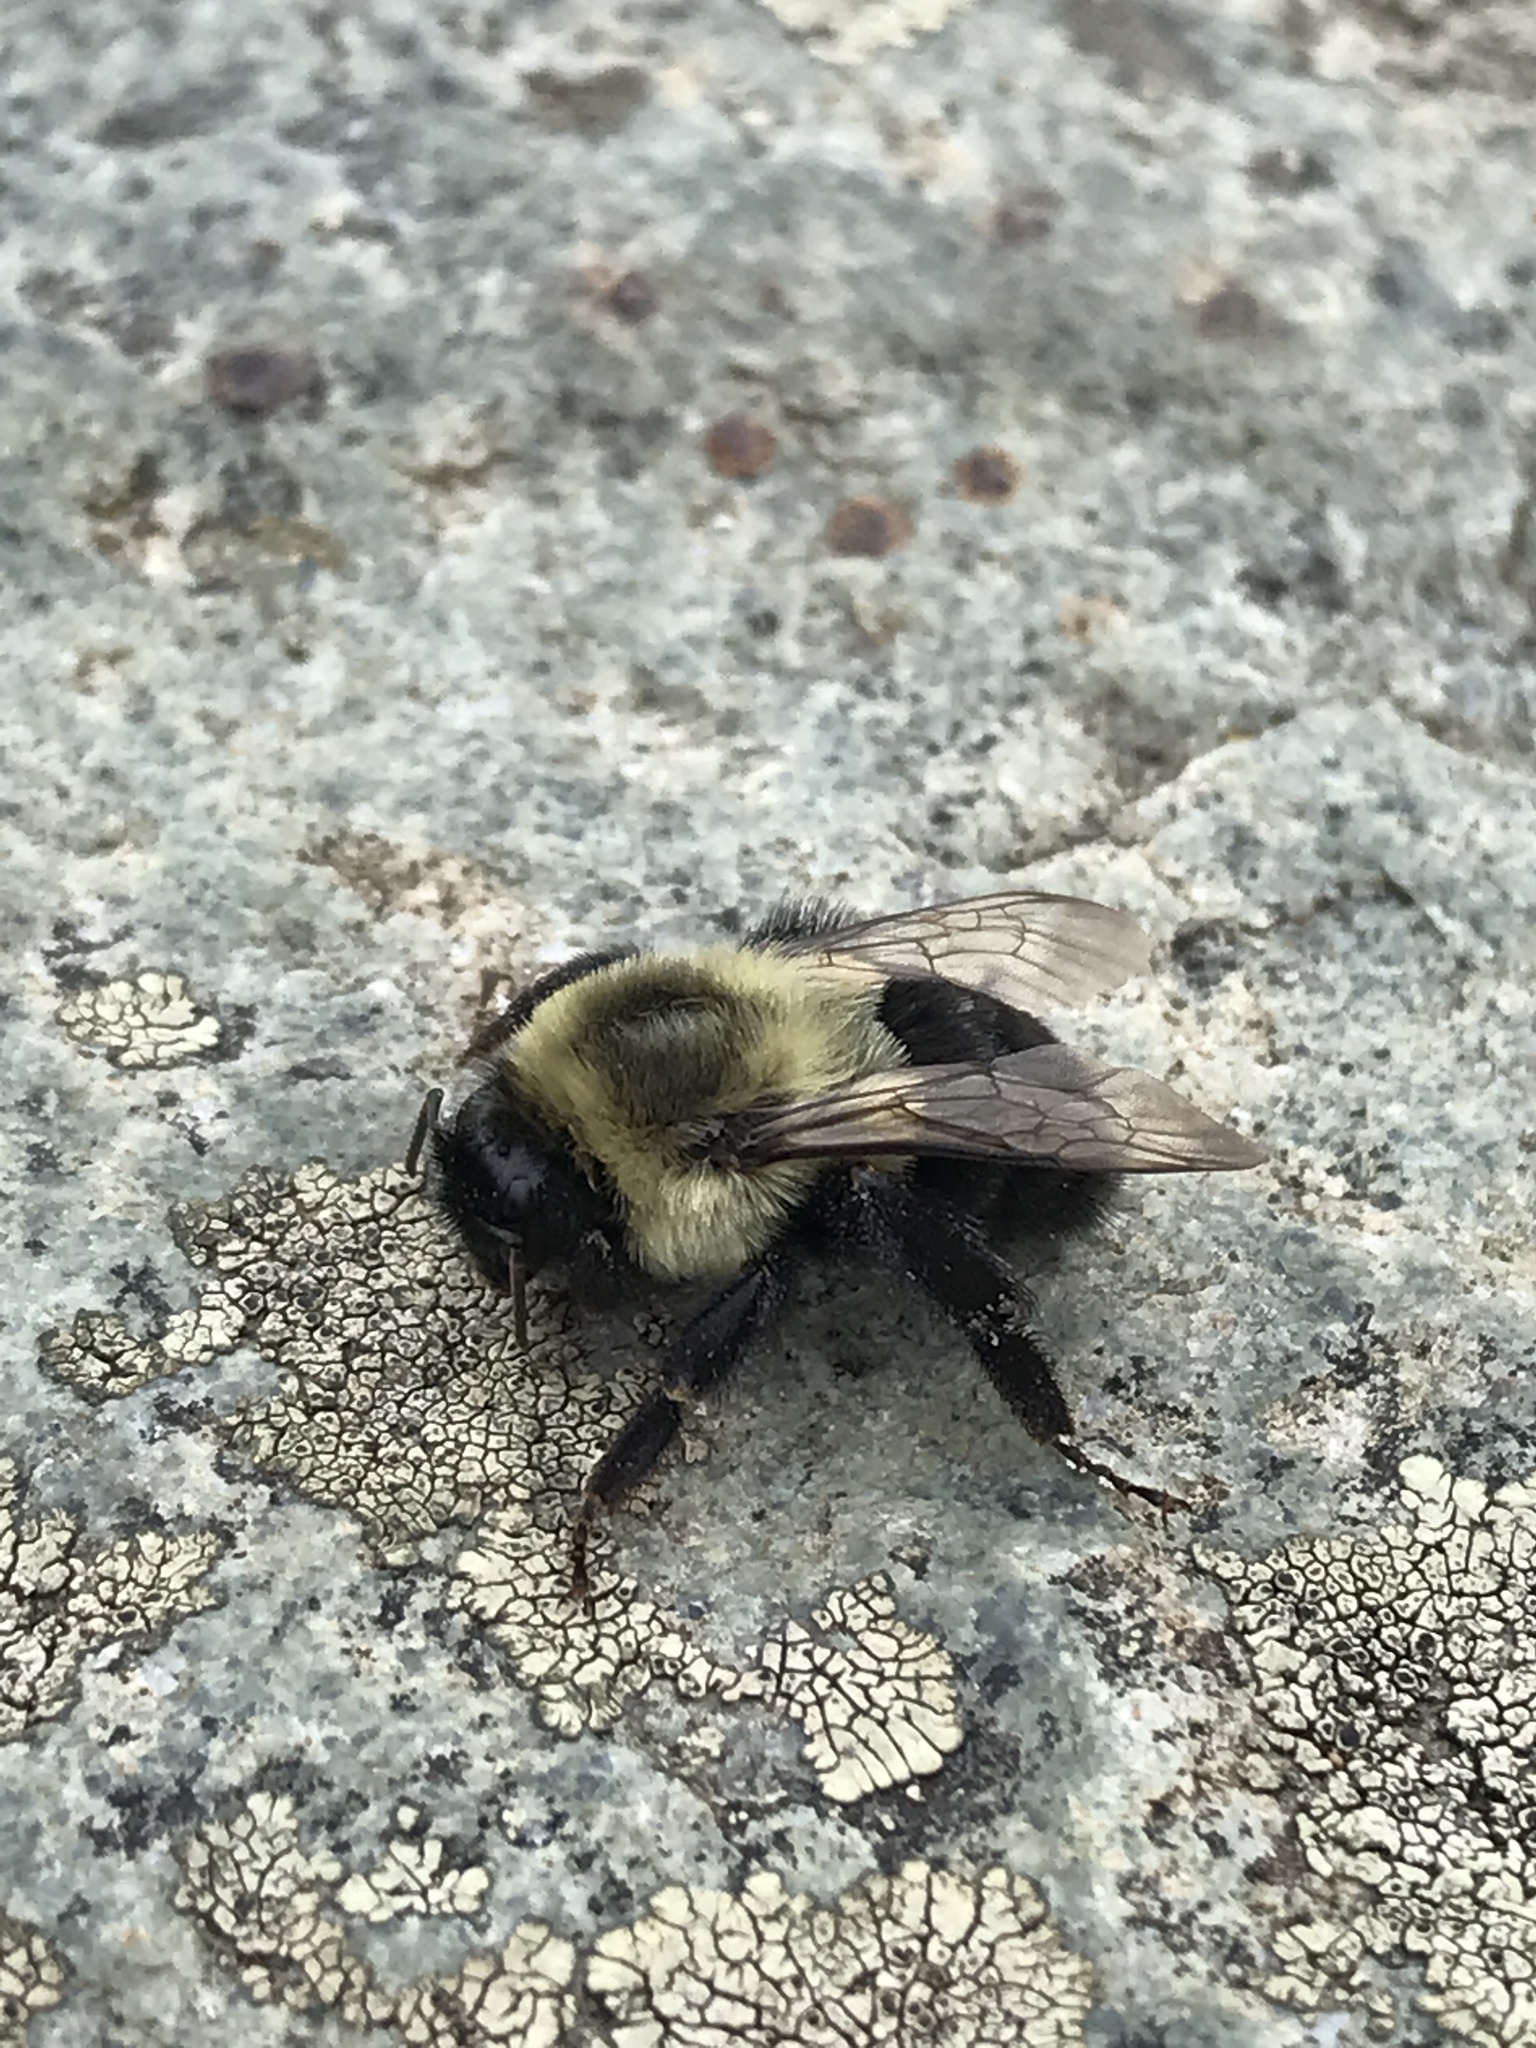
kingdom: Animalia
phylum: Arthropoda
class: Insecta
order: Hymenoptera
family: Apidae
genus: Bombus
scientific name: Bombus impatiens
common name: Common eastern bumble bee
